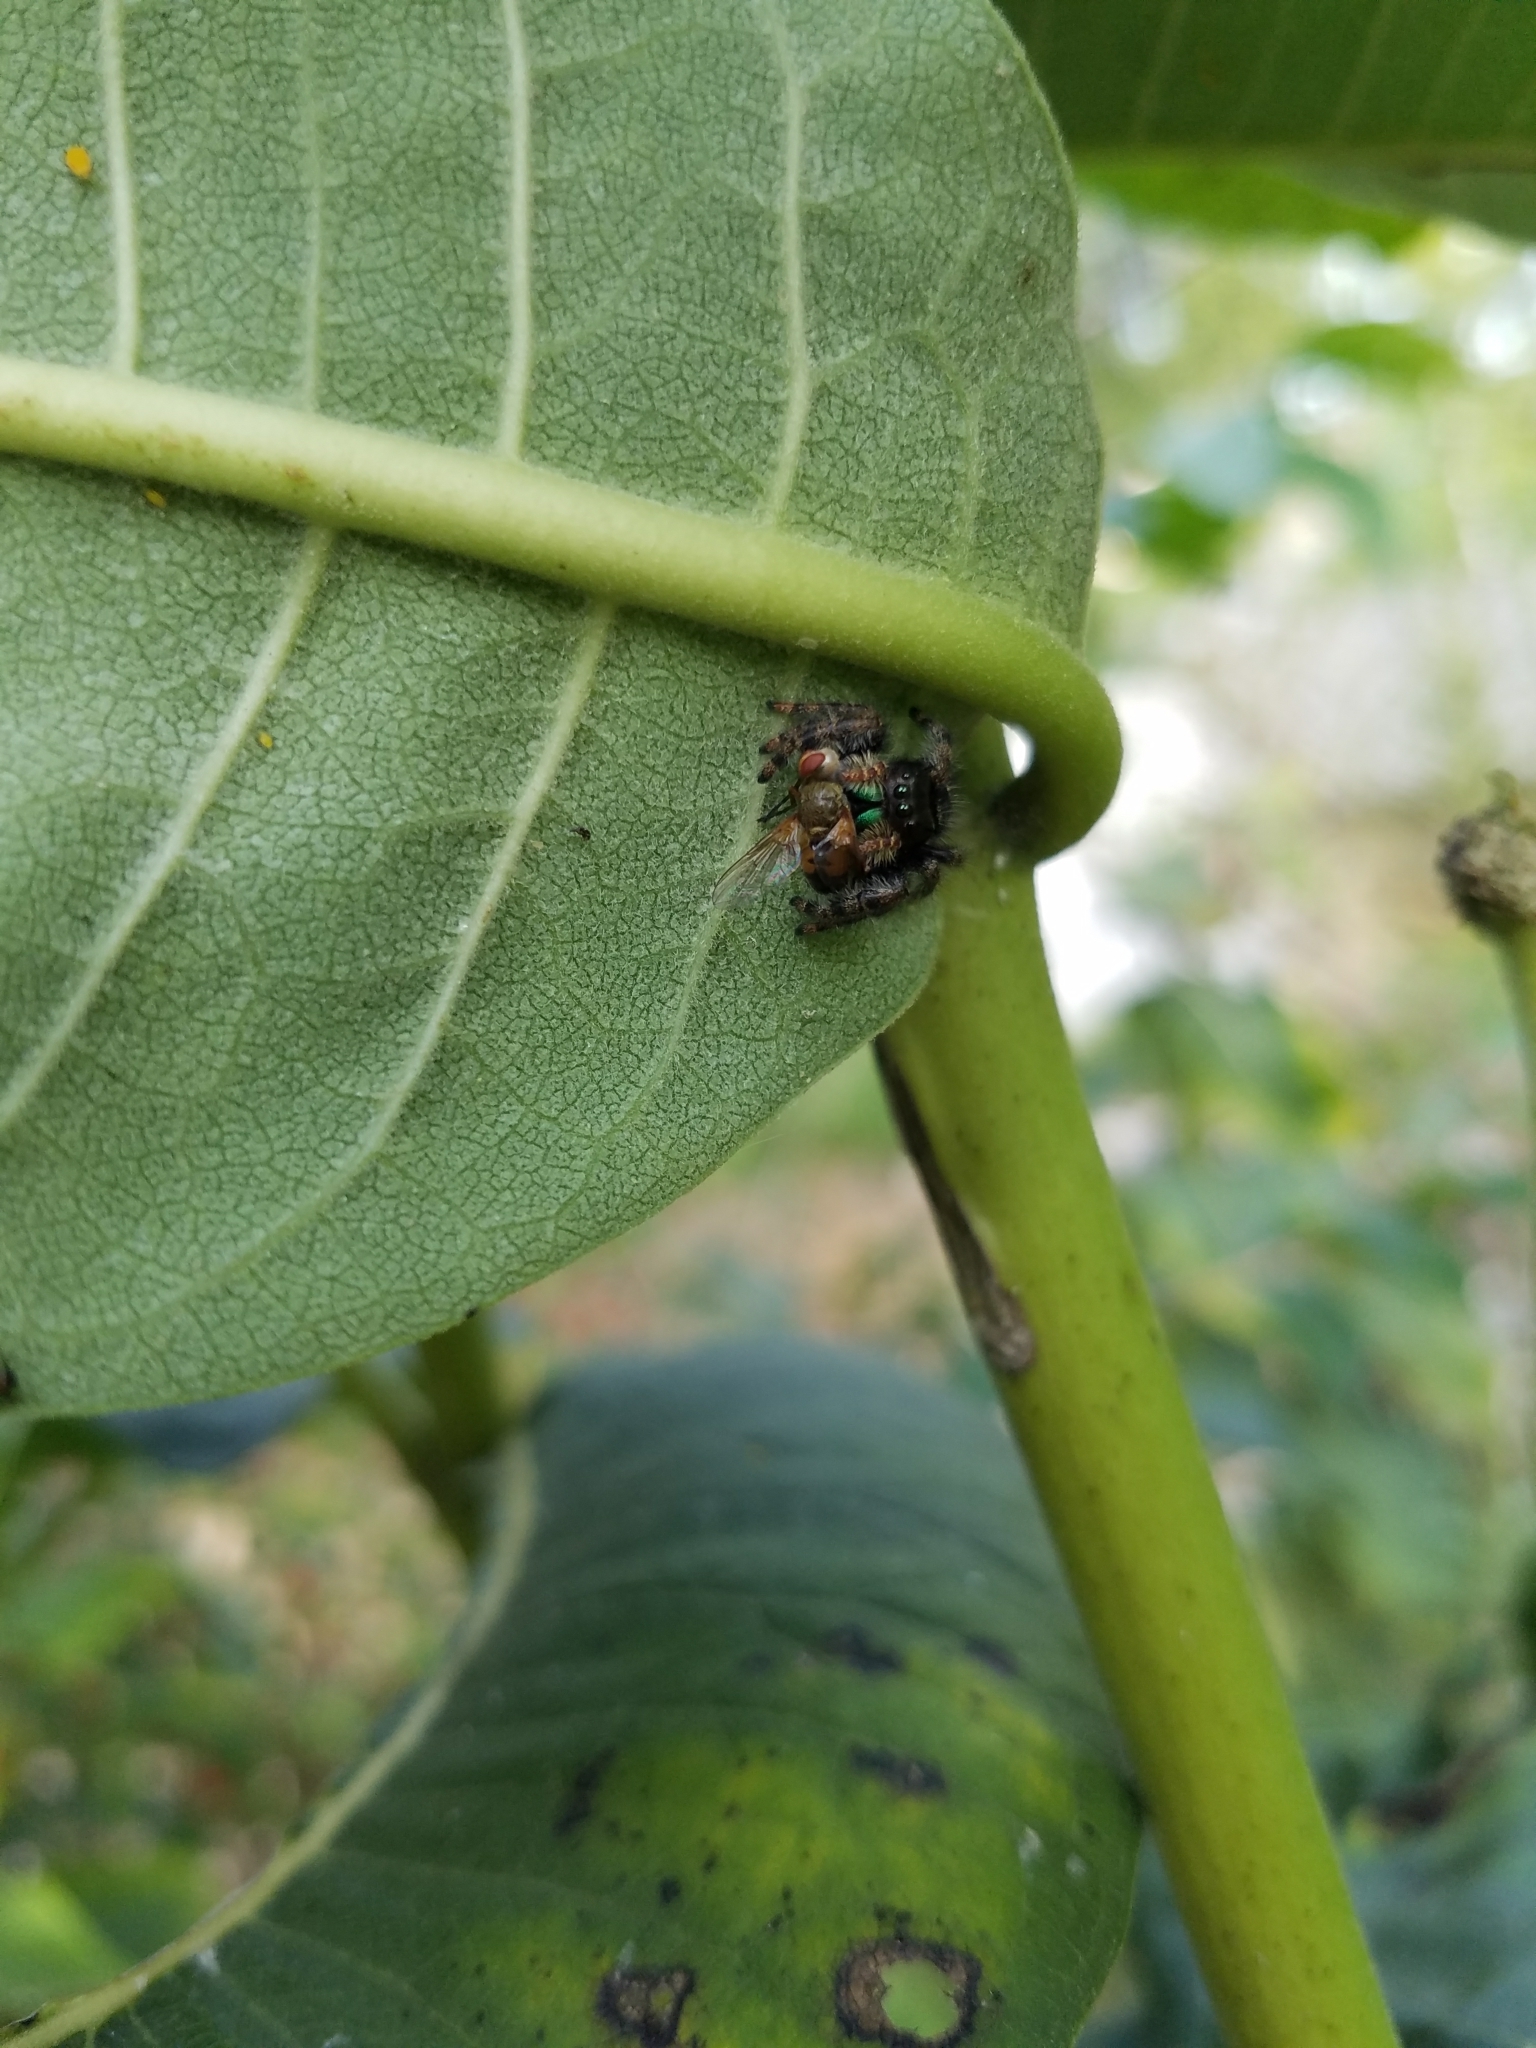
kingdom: Animalia
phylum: Arthropoda
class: Arachnida
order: Araneae
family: Salticidae
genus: Phidippus
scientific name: Phidippus audax
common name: Bold jumper
